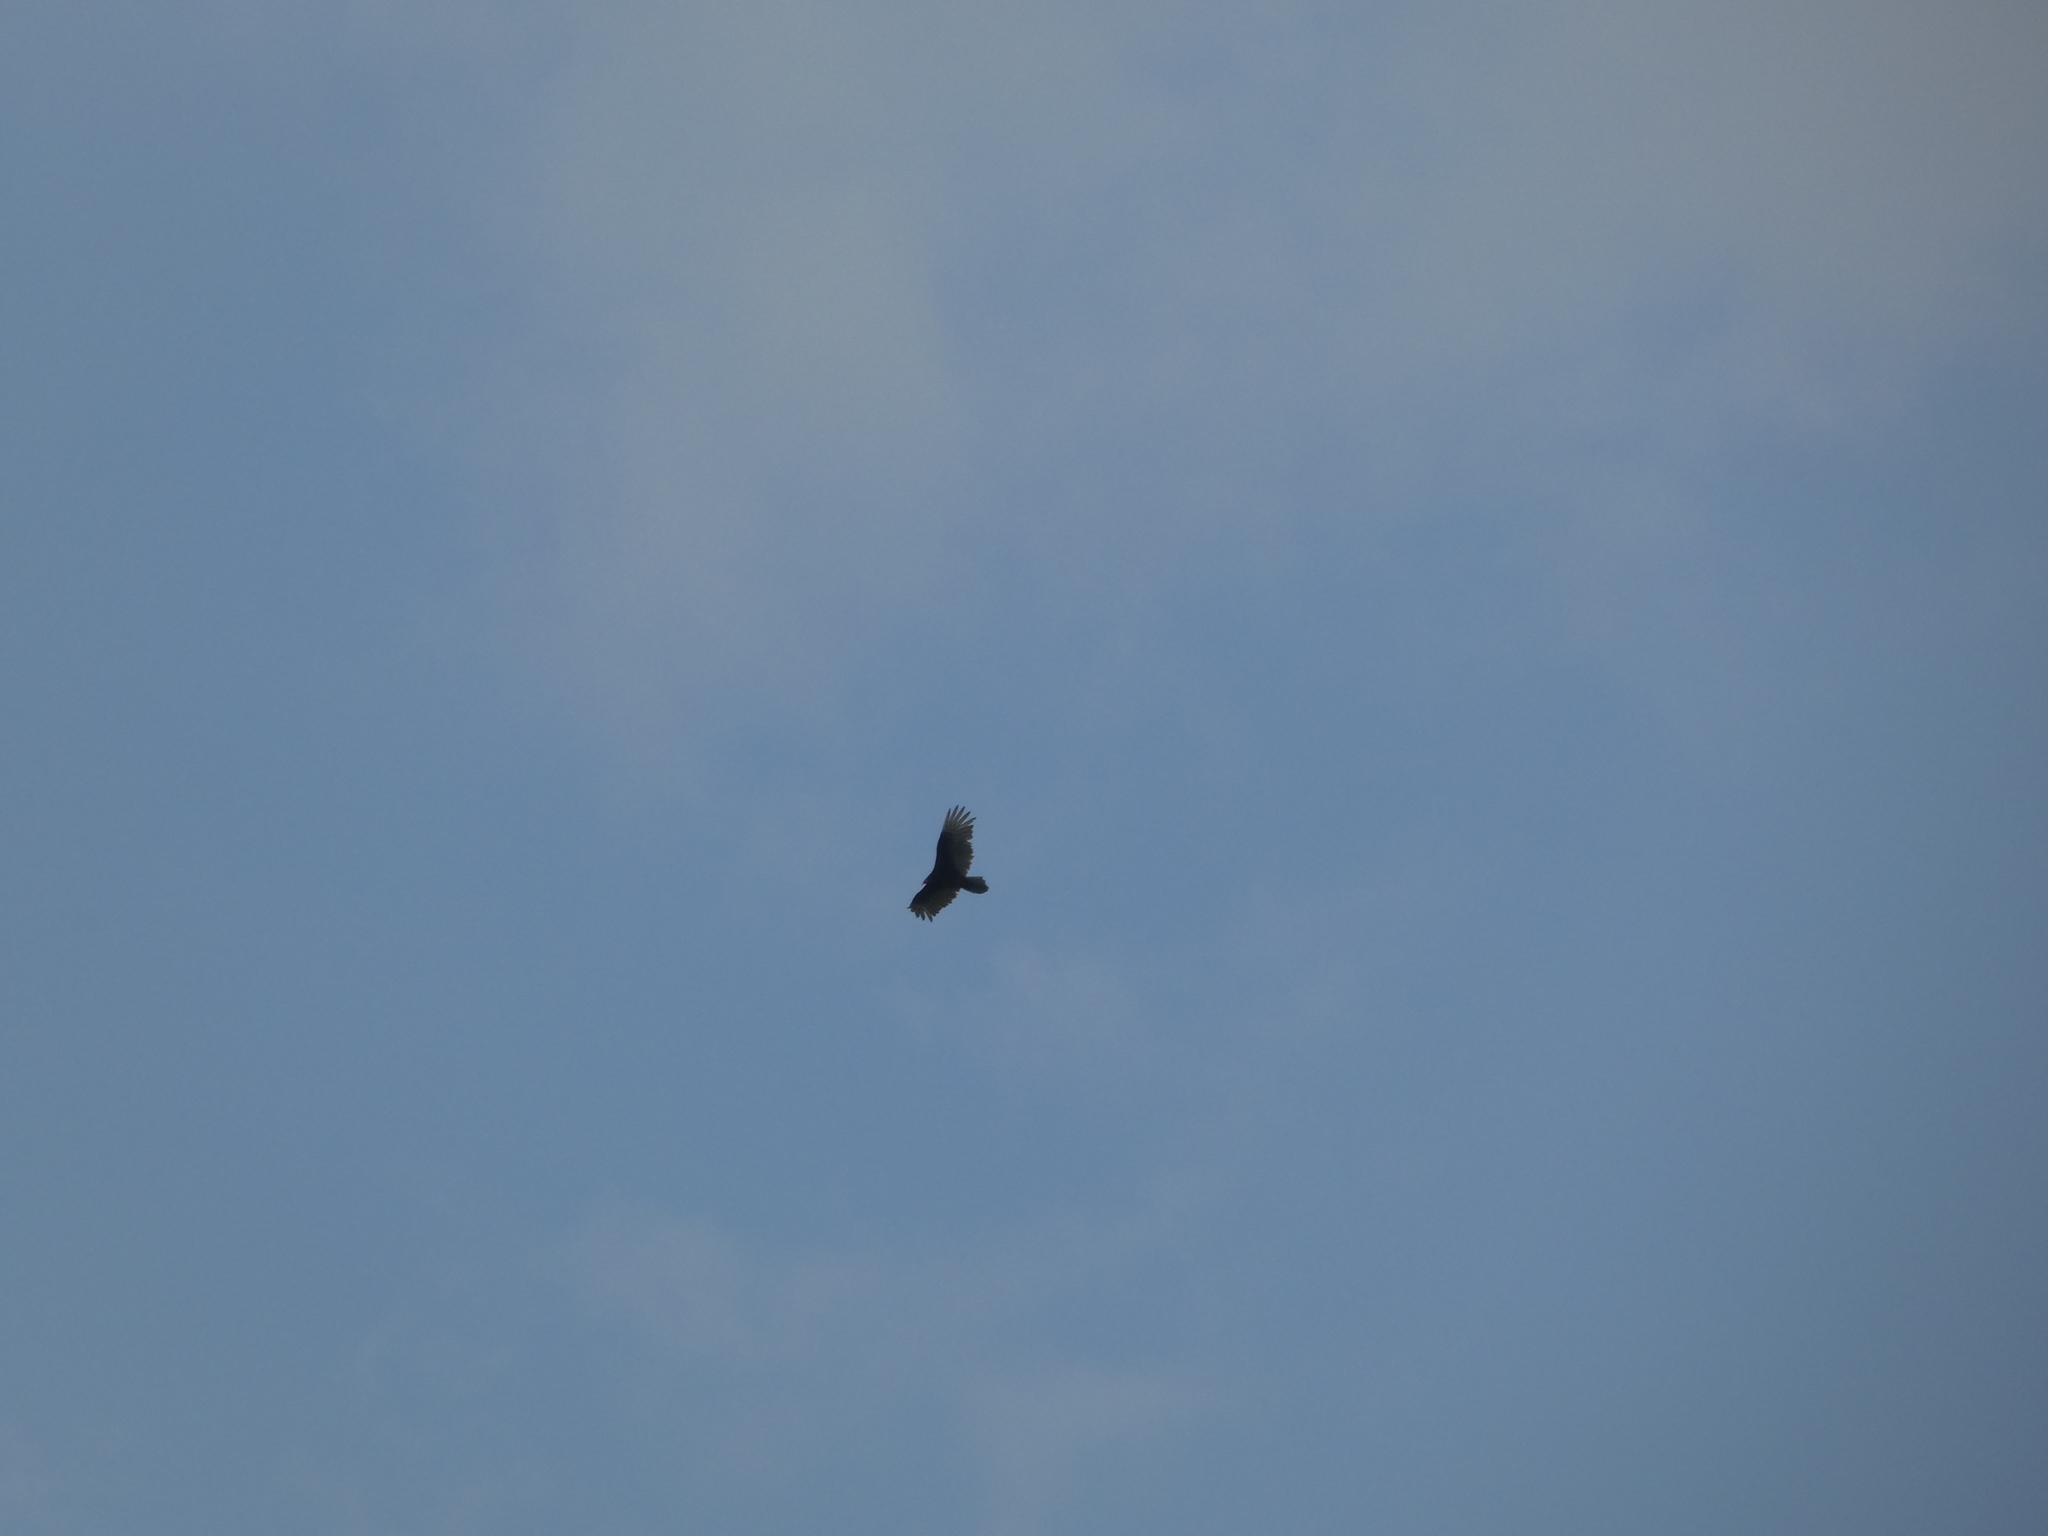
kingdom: Animalia
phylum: Chordata
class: Aves
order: Accipitriformes
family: Cathartidae
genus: Cathartes
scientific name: Cathartes aura
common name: Turkey vulture
